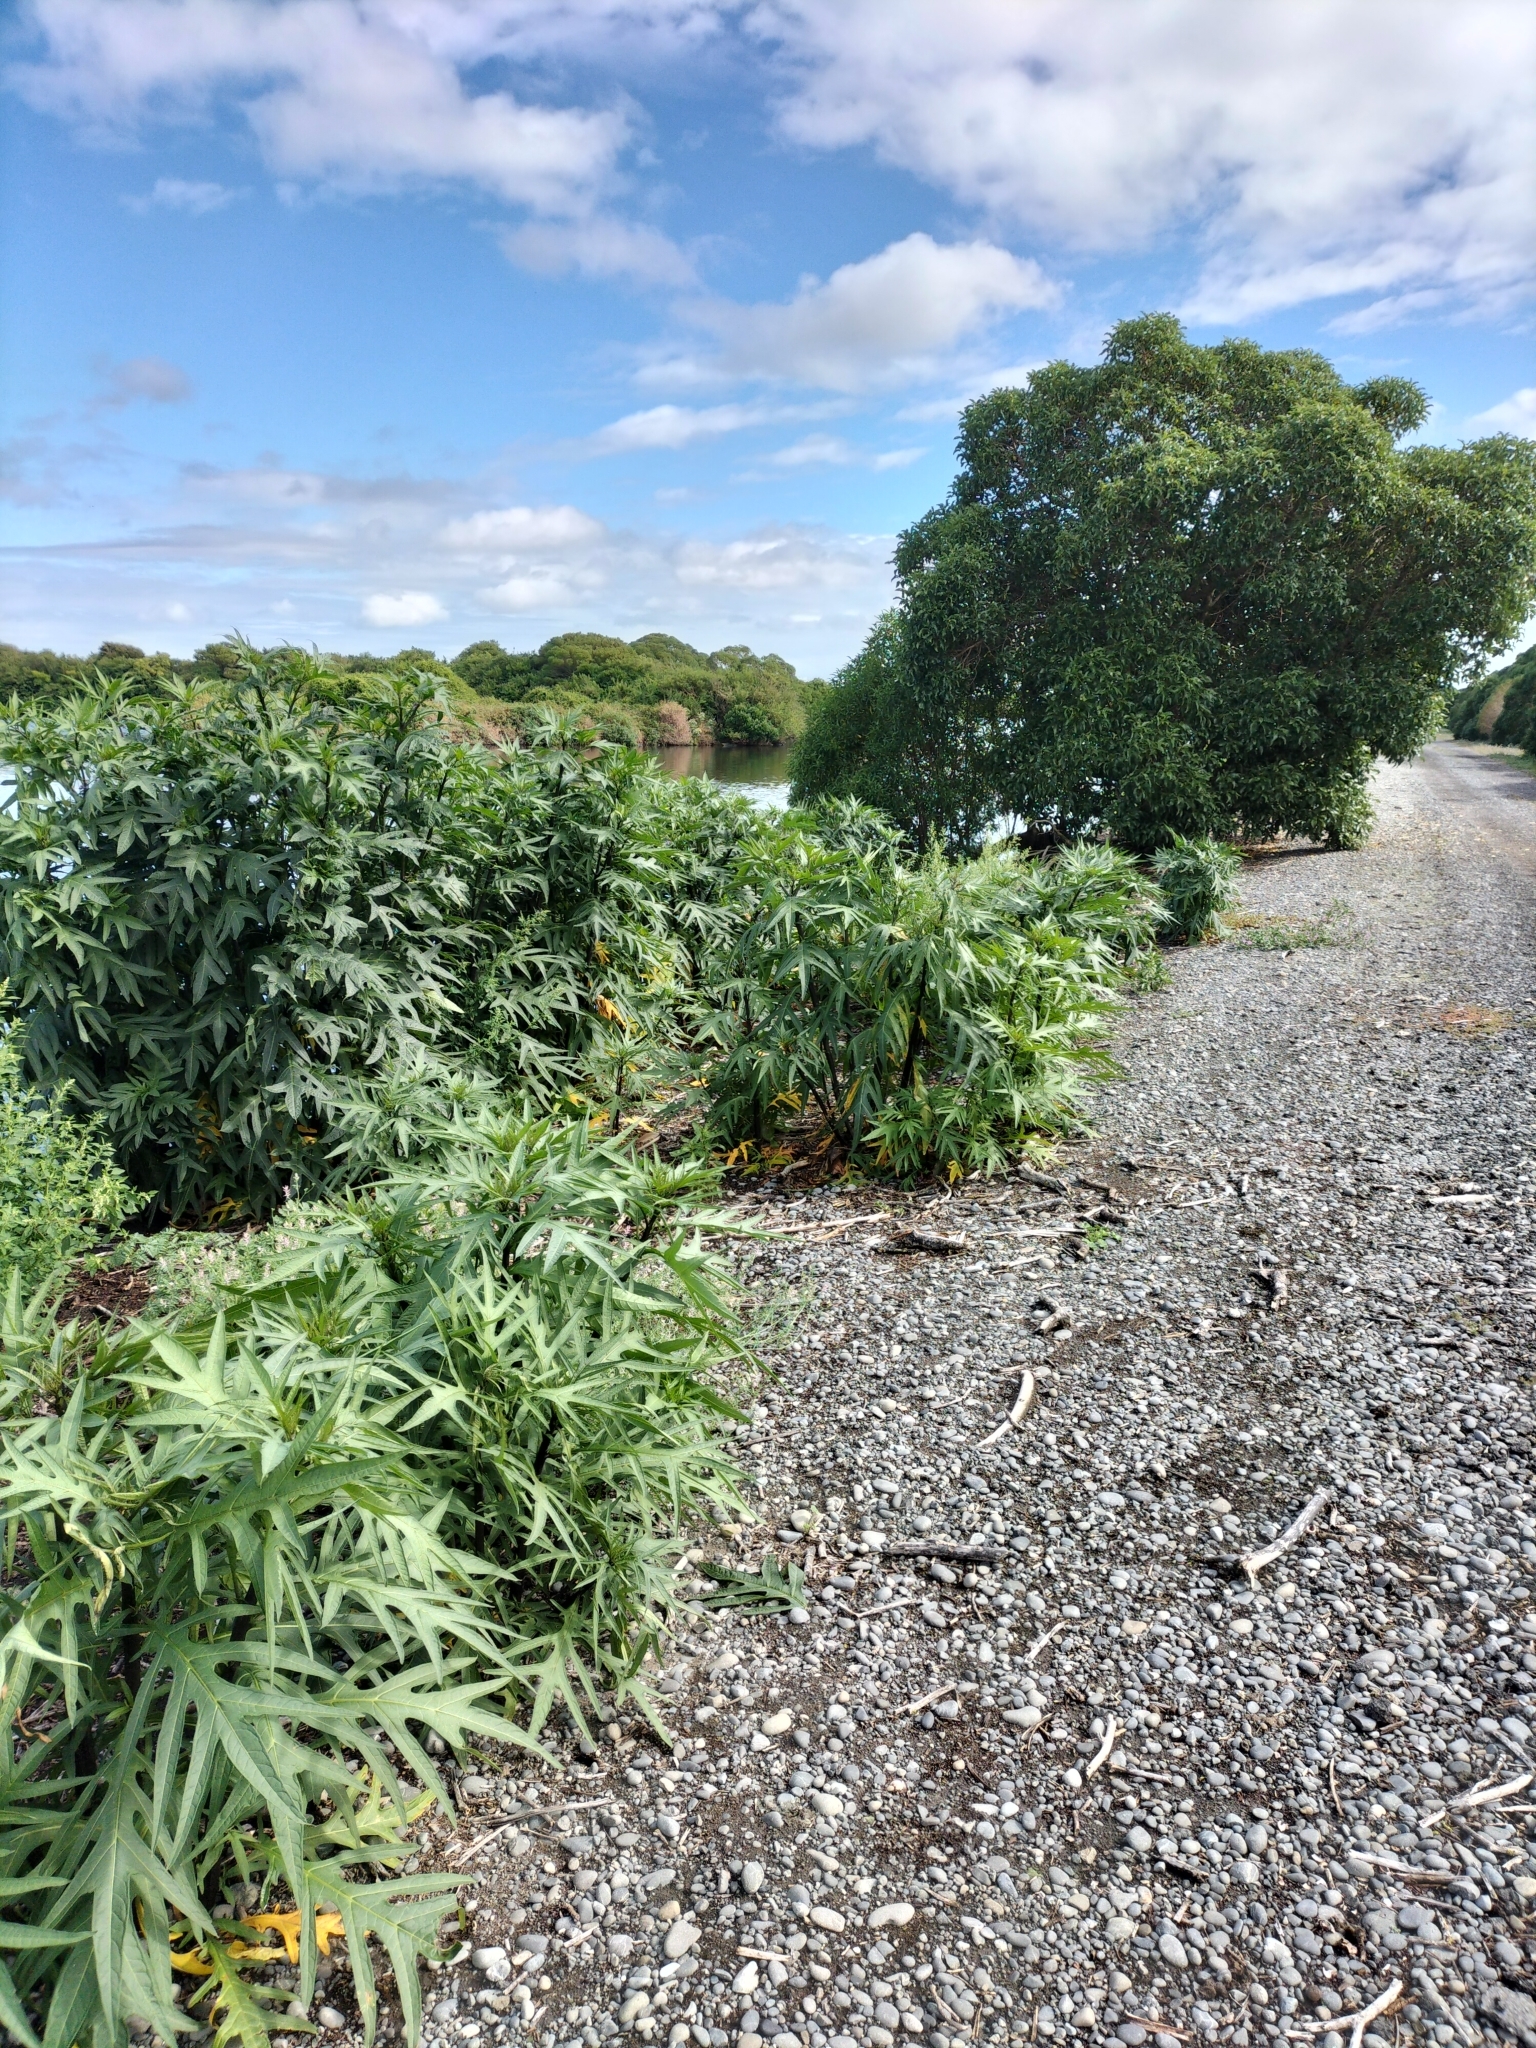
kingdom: Plantae
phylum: Tracheophyta
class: Magnoliopsida
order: Solanales
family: Solanaceae
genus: Solanum
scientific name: Solanum laciniatum
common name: Kangaroo-apple
